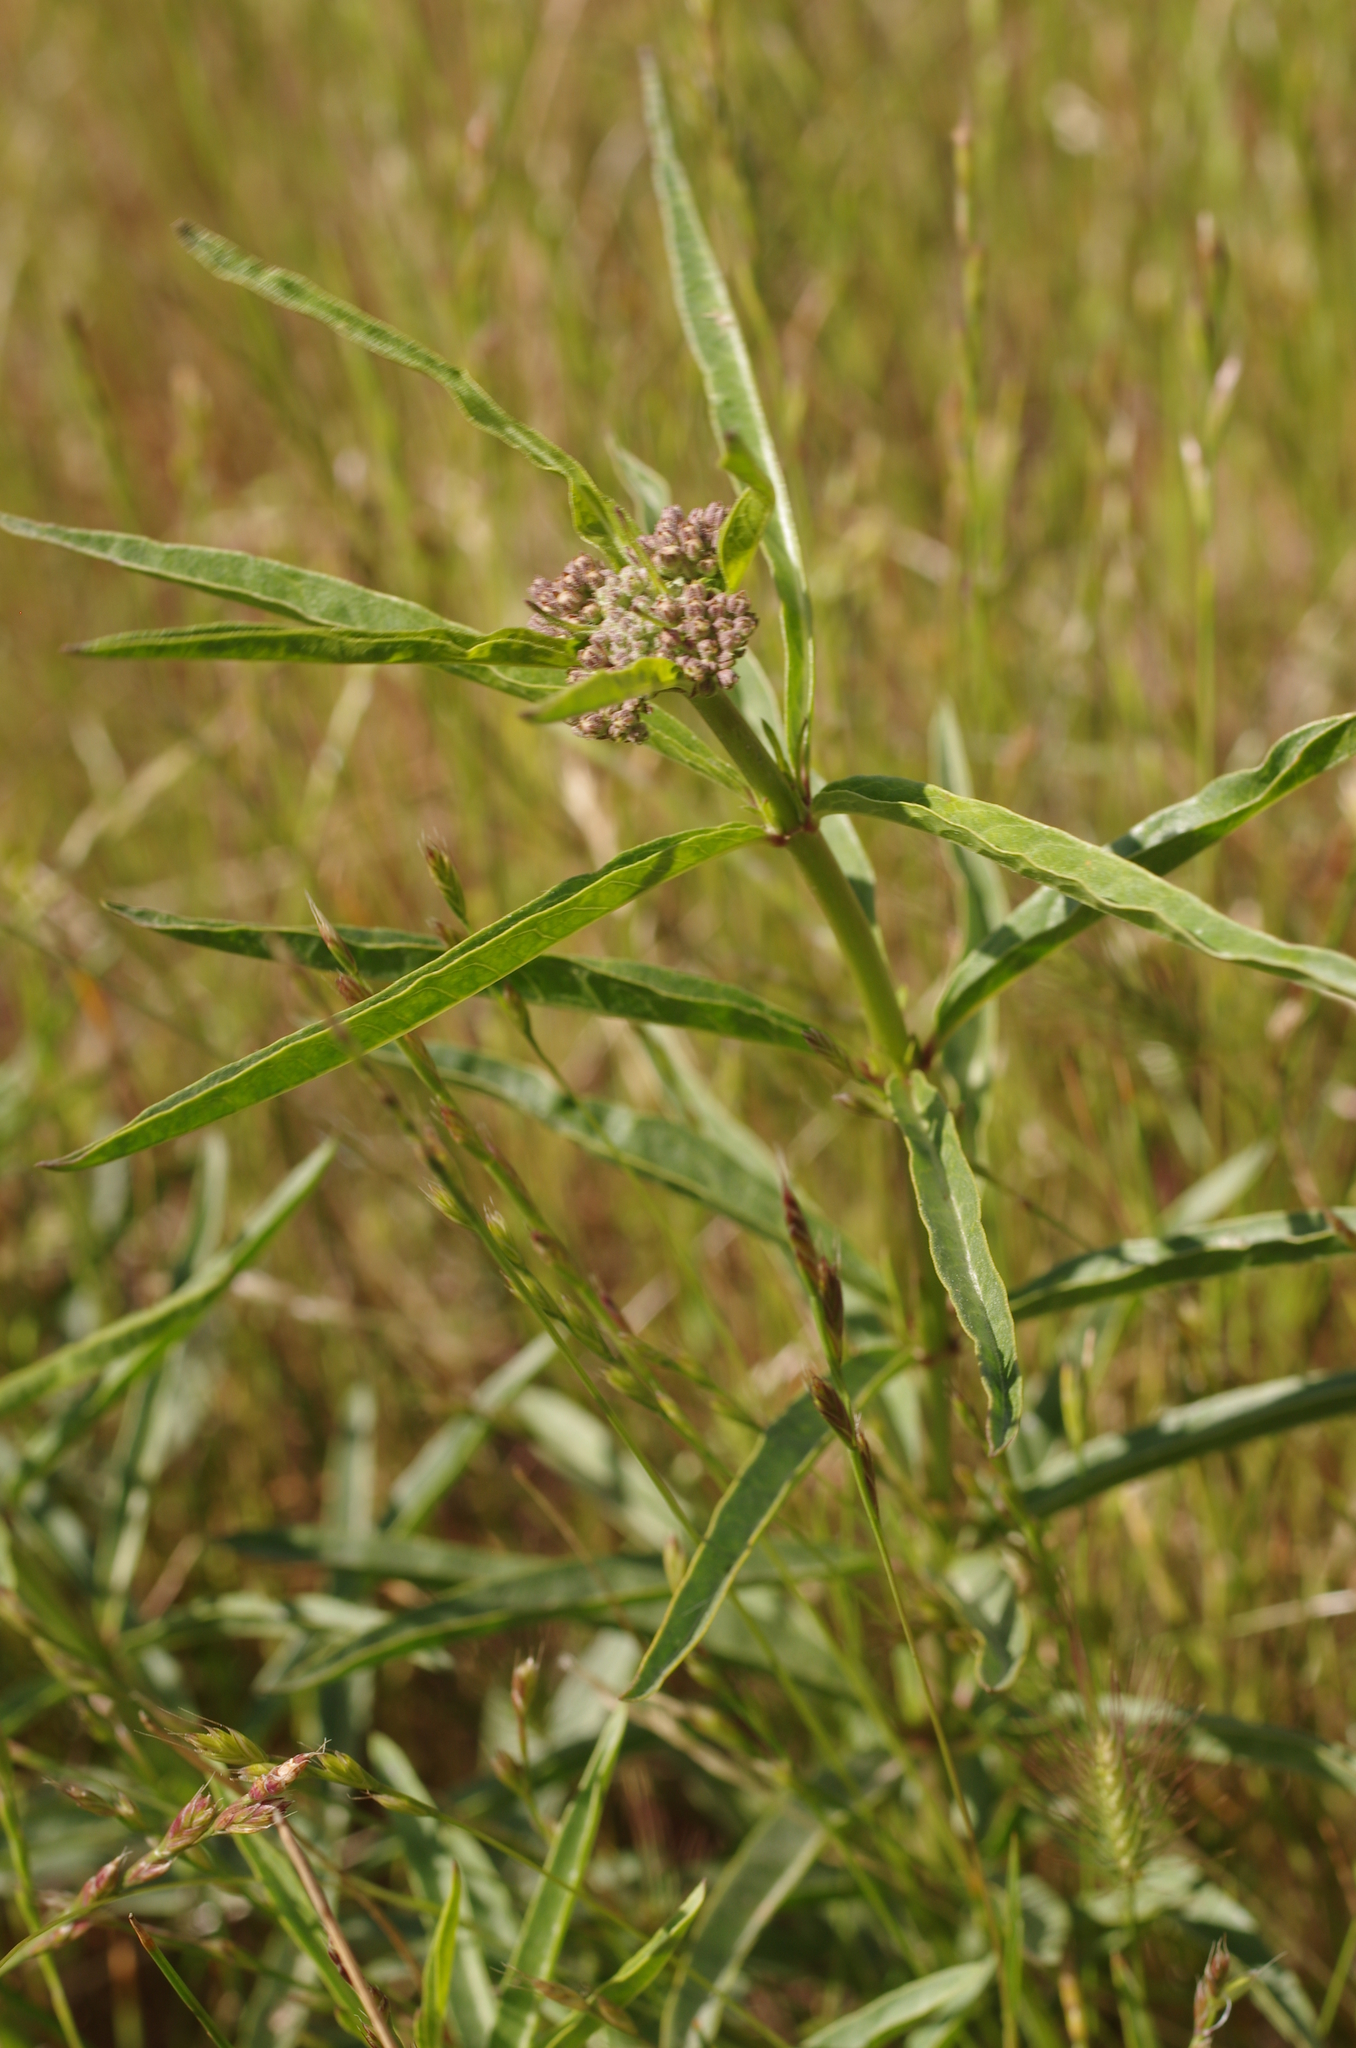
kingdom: Plantae
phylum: Tracheophyta
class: Magnoliopsida
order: Gentianales
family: Apocynaceae
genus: Asclepias
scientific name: Asclepias fascicularis
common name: Mexican milkweed
